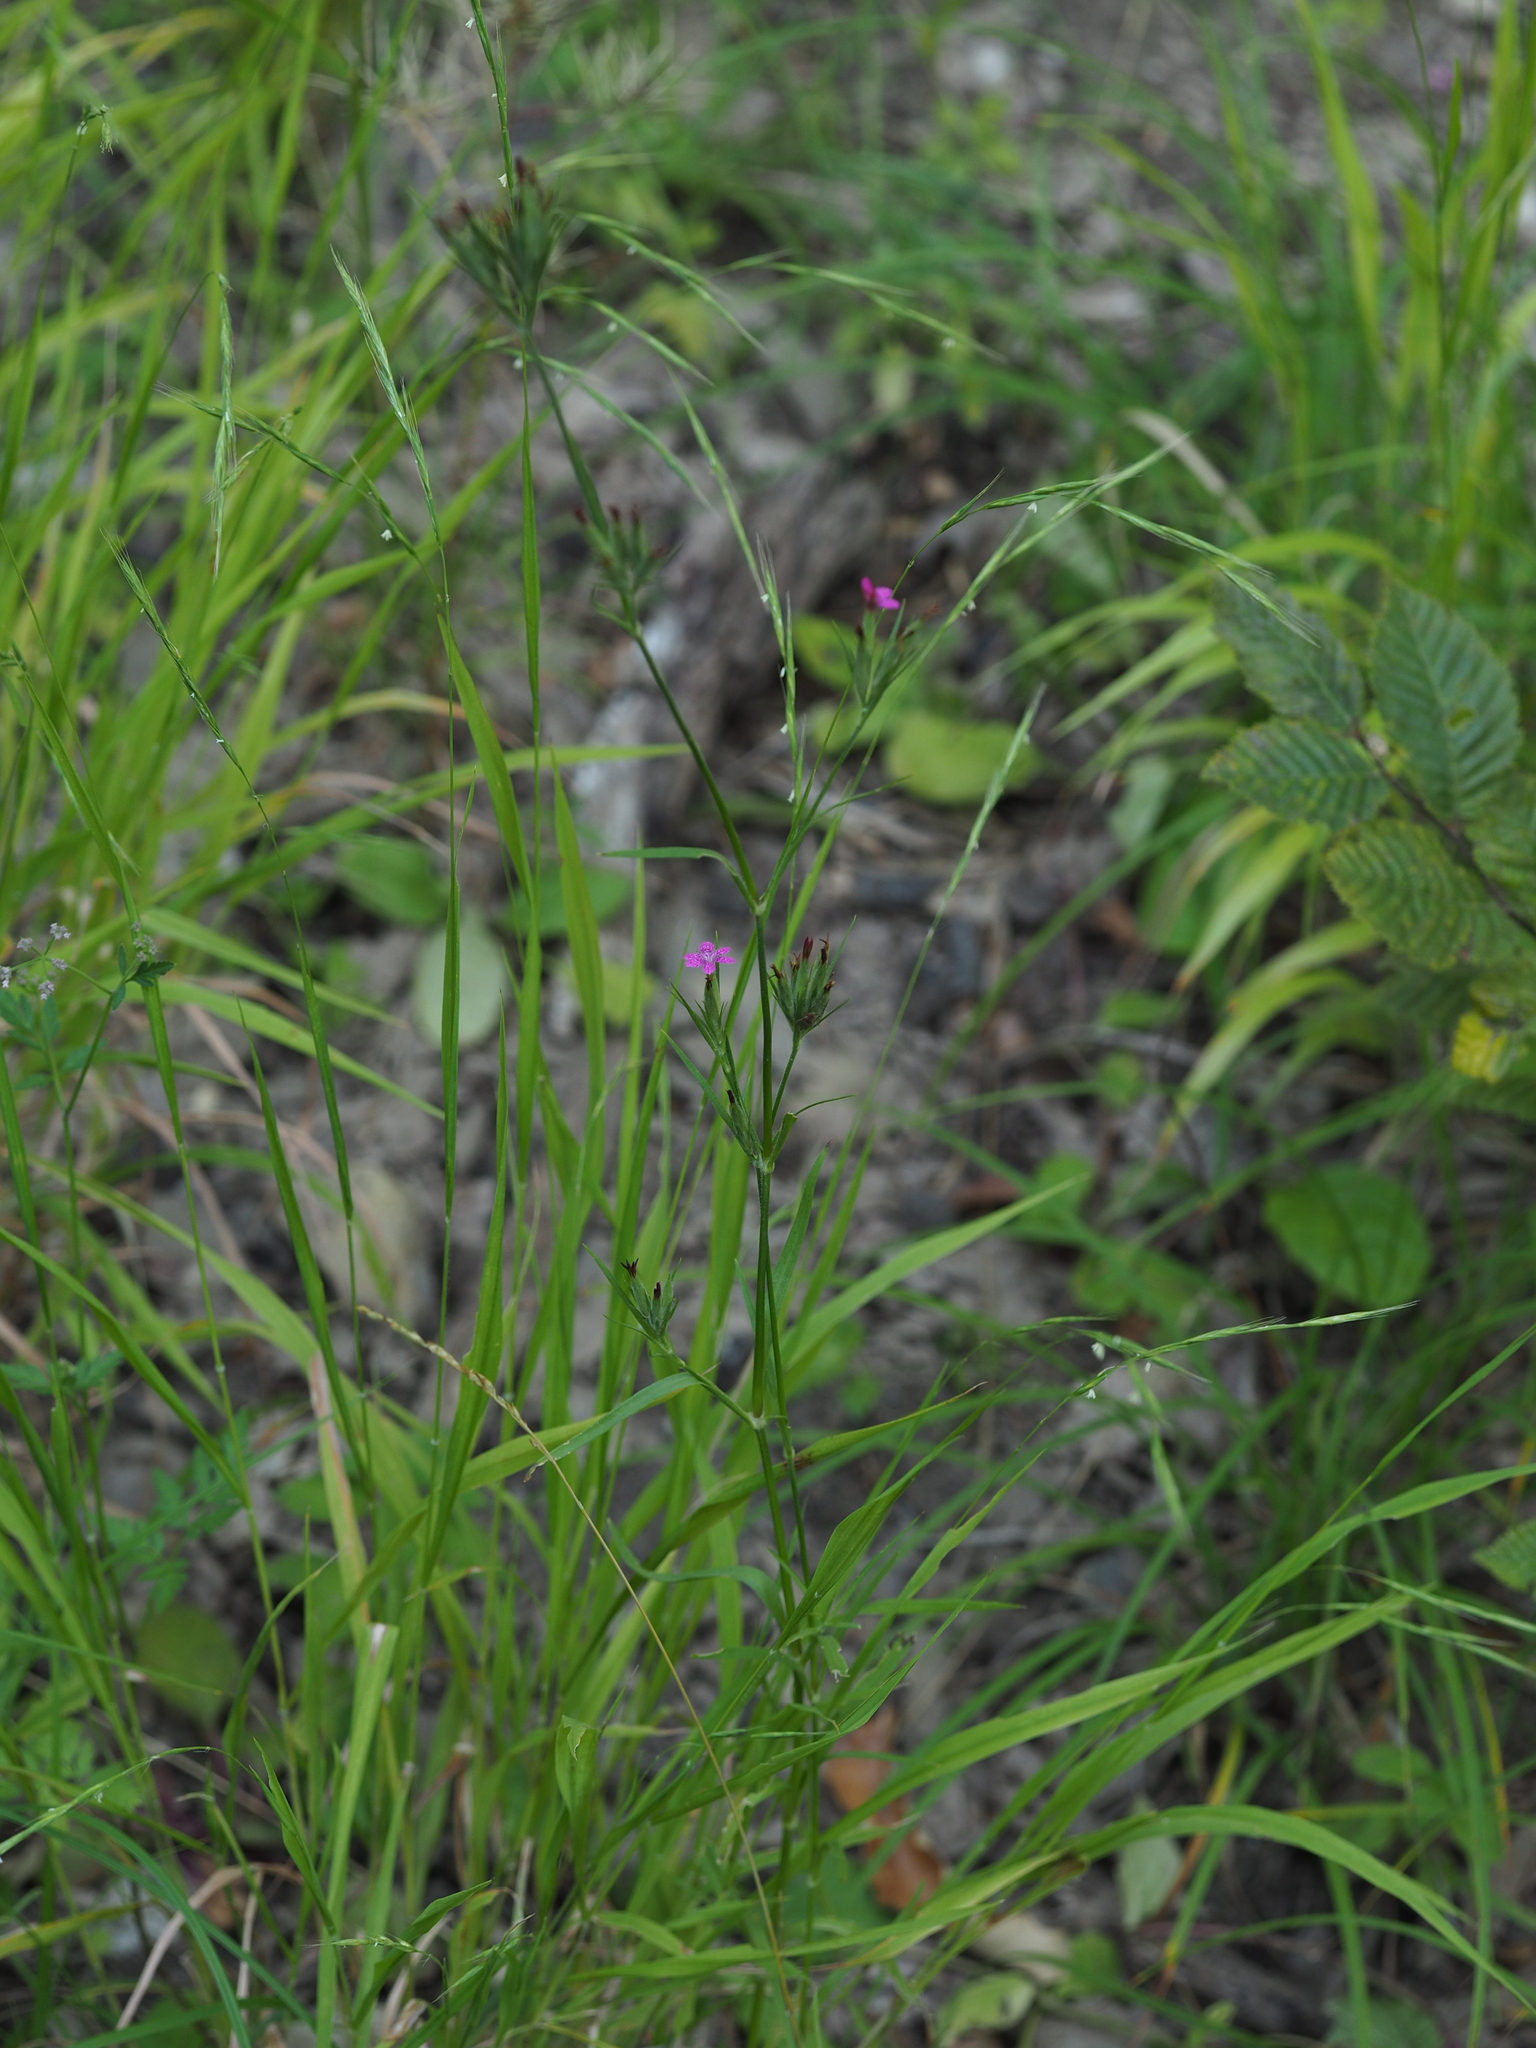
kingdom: Plantae
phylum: Tracheophyta
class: Magnoliopsida
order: Caryophyllales
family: Caryophyllaceae
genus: Dianthus
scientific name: Dianthus armeria
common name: Deptford pink
